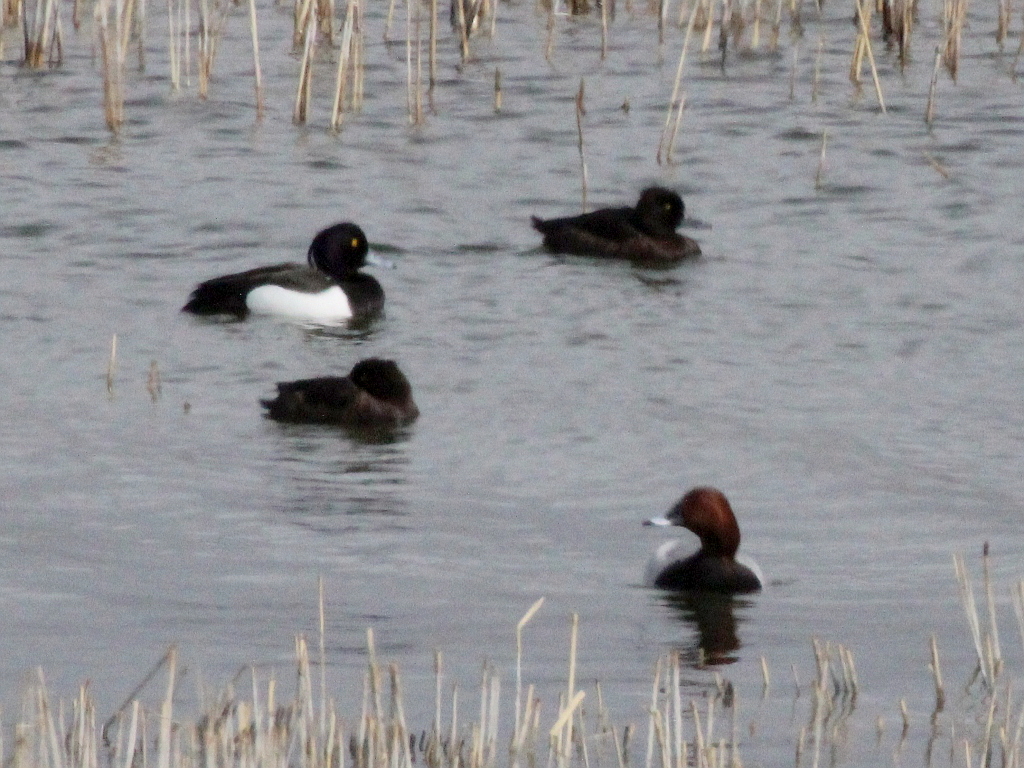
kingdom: Animalia
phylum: Chordata
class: Aves
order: Anseriformes
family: Anatidae
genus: Aythya
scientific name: Aythya fuligula
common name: Tufted duck
